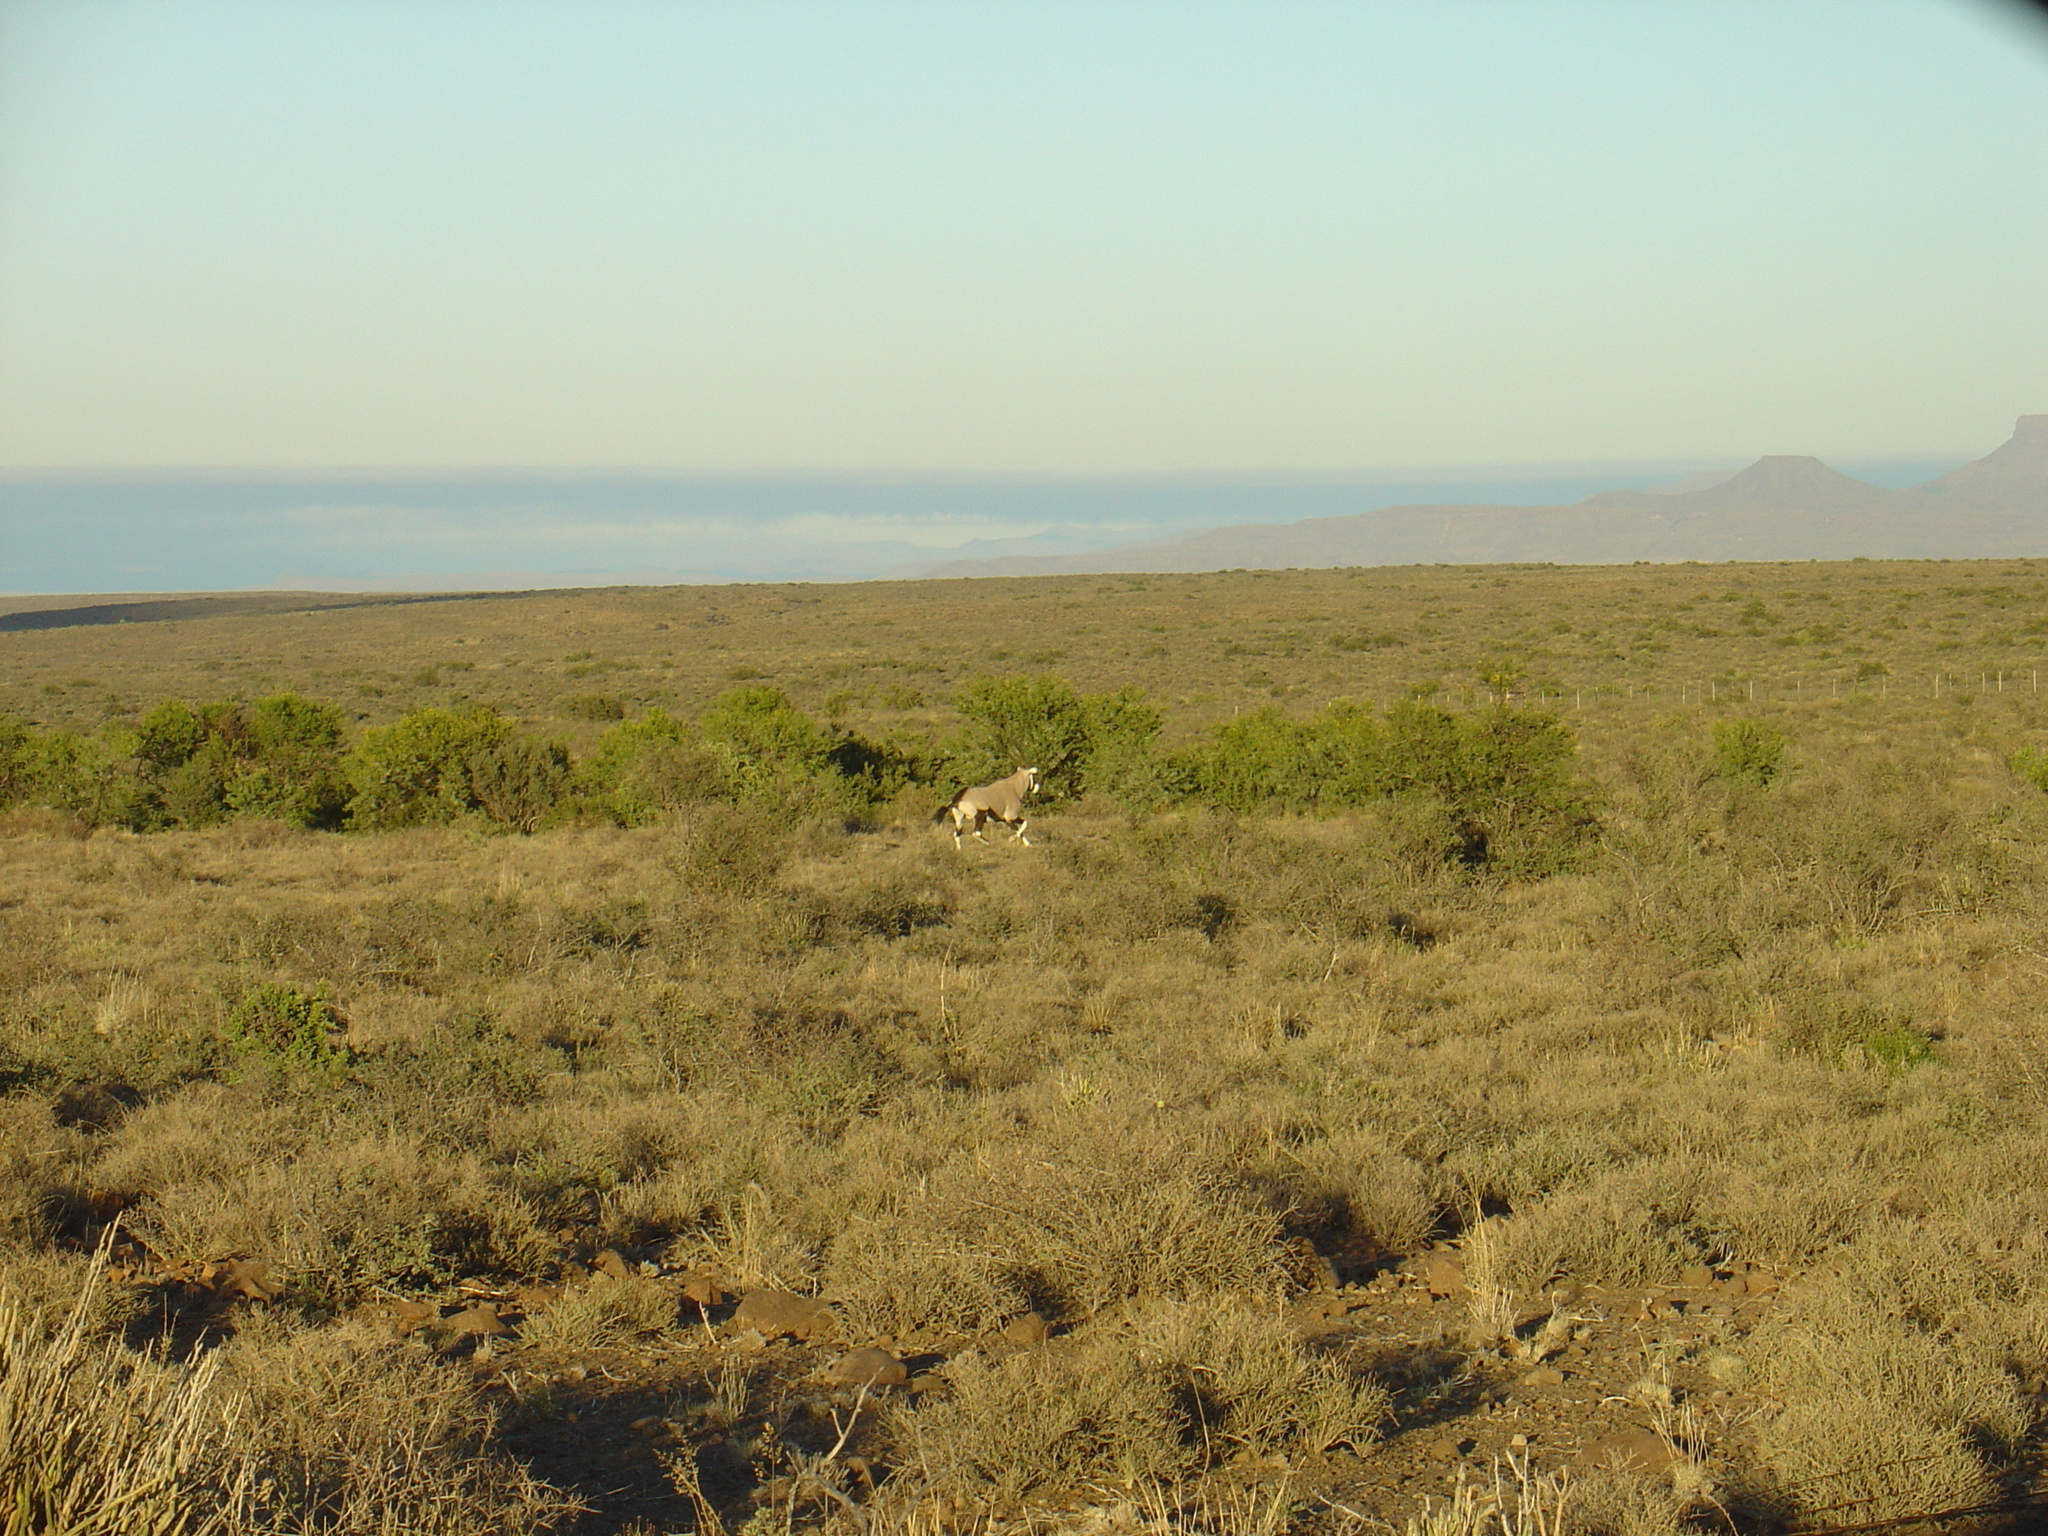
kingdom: Animalia
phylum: Chordata
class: Mammalia
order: Artiodactyla
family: Bovidae
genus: Oryx
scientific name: Oryx gazella
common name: Gemsbok
